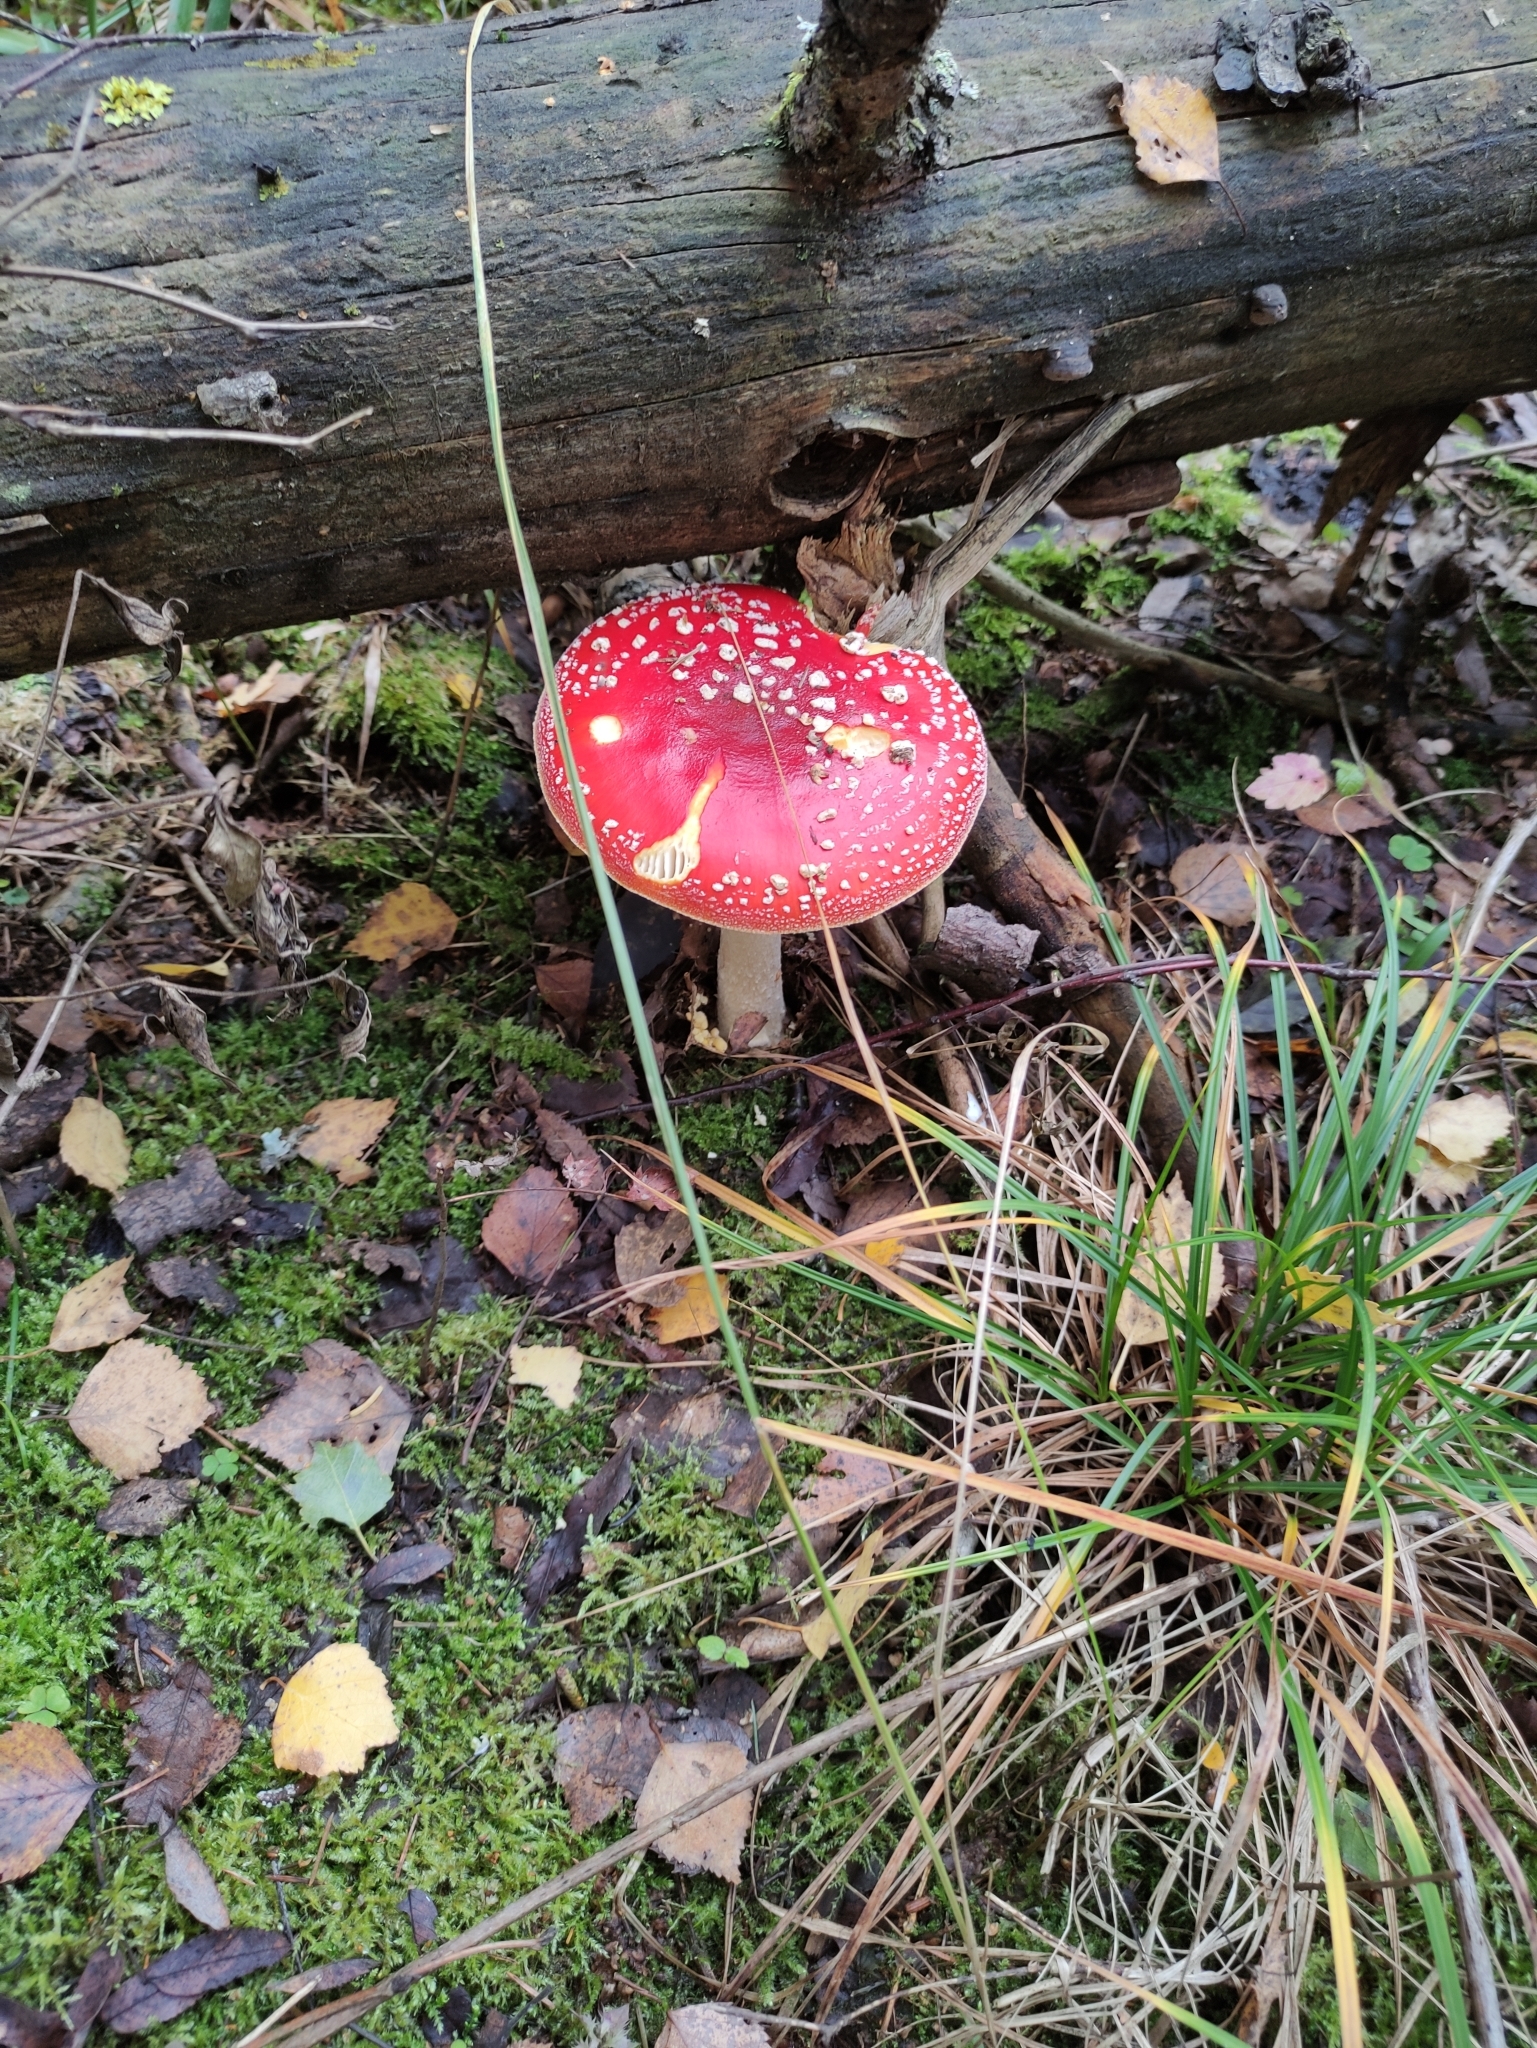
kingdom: Fungi
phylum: Basidiomycota
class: Agaricomycetes
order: Agaricales
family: Amanitaceae
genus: Amanita
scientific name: Amanita muscaria
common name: Fly agaric
